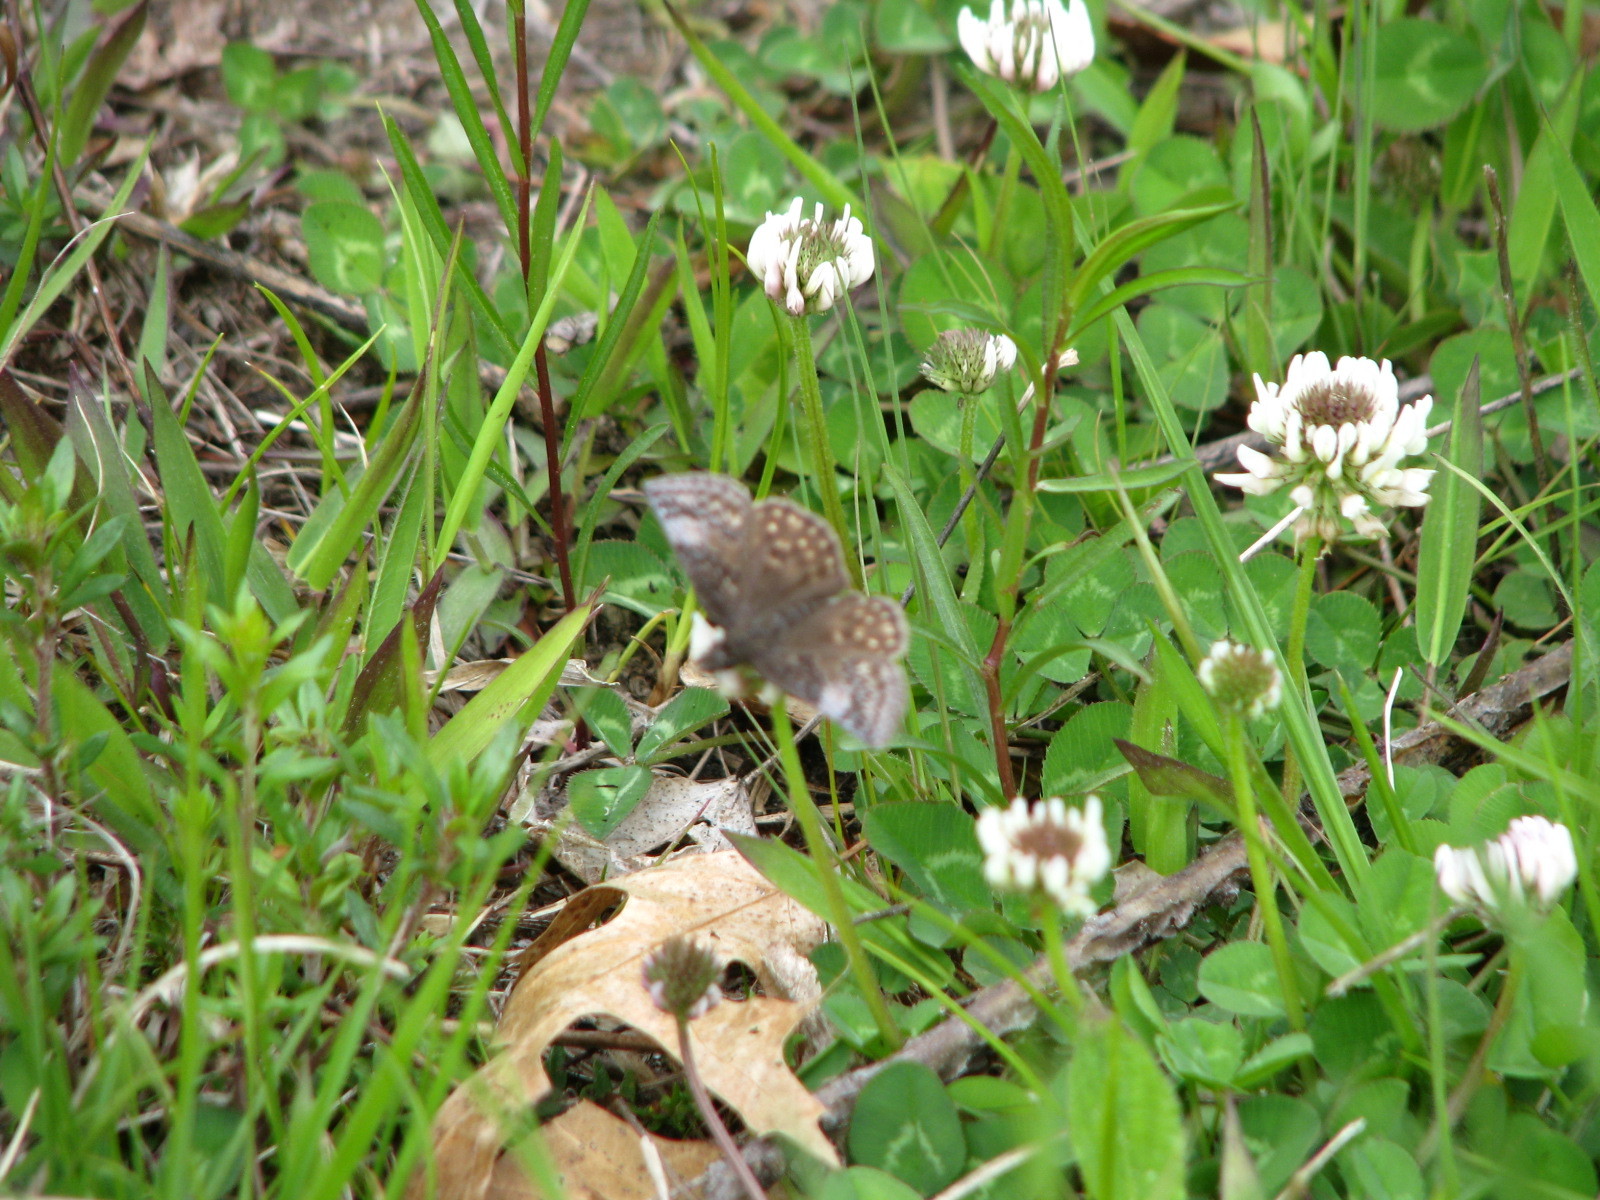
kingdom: Animalia
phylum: Arthropoda
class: Insecta
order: Lepidoptera
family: Hesperiidae
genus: Erynnis
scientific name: Erynnis icelus
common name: Dreamy duskywing
